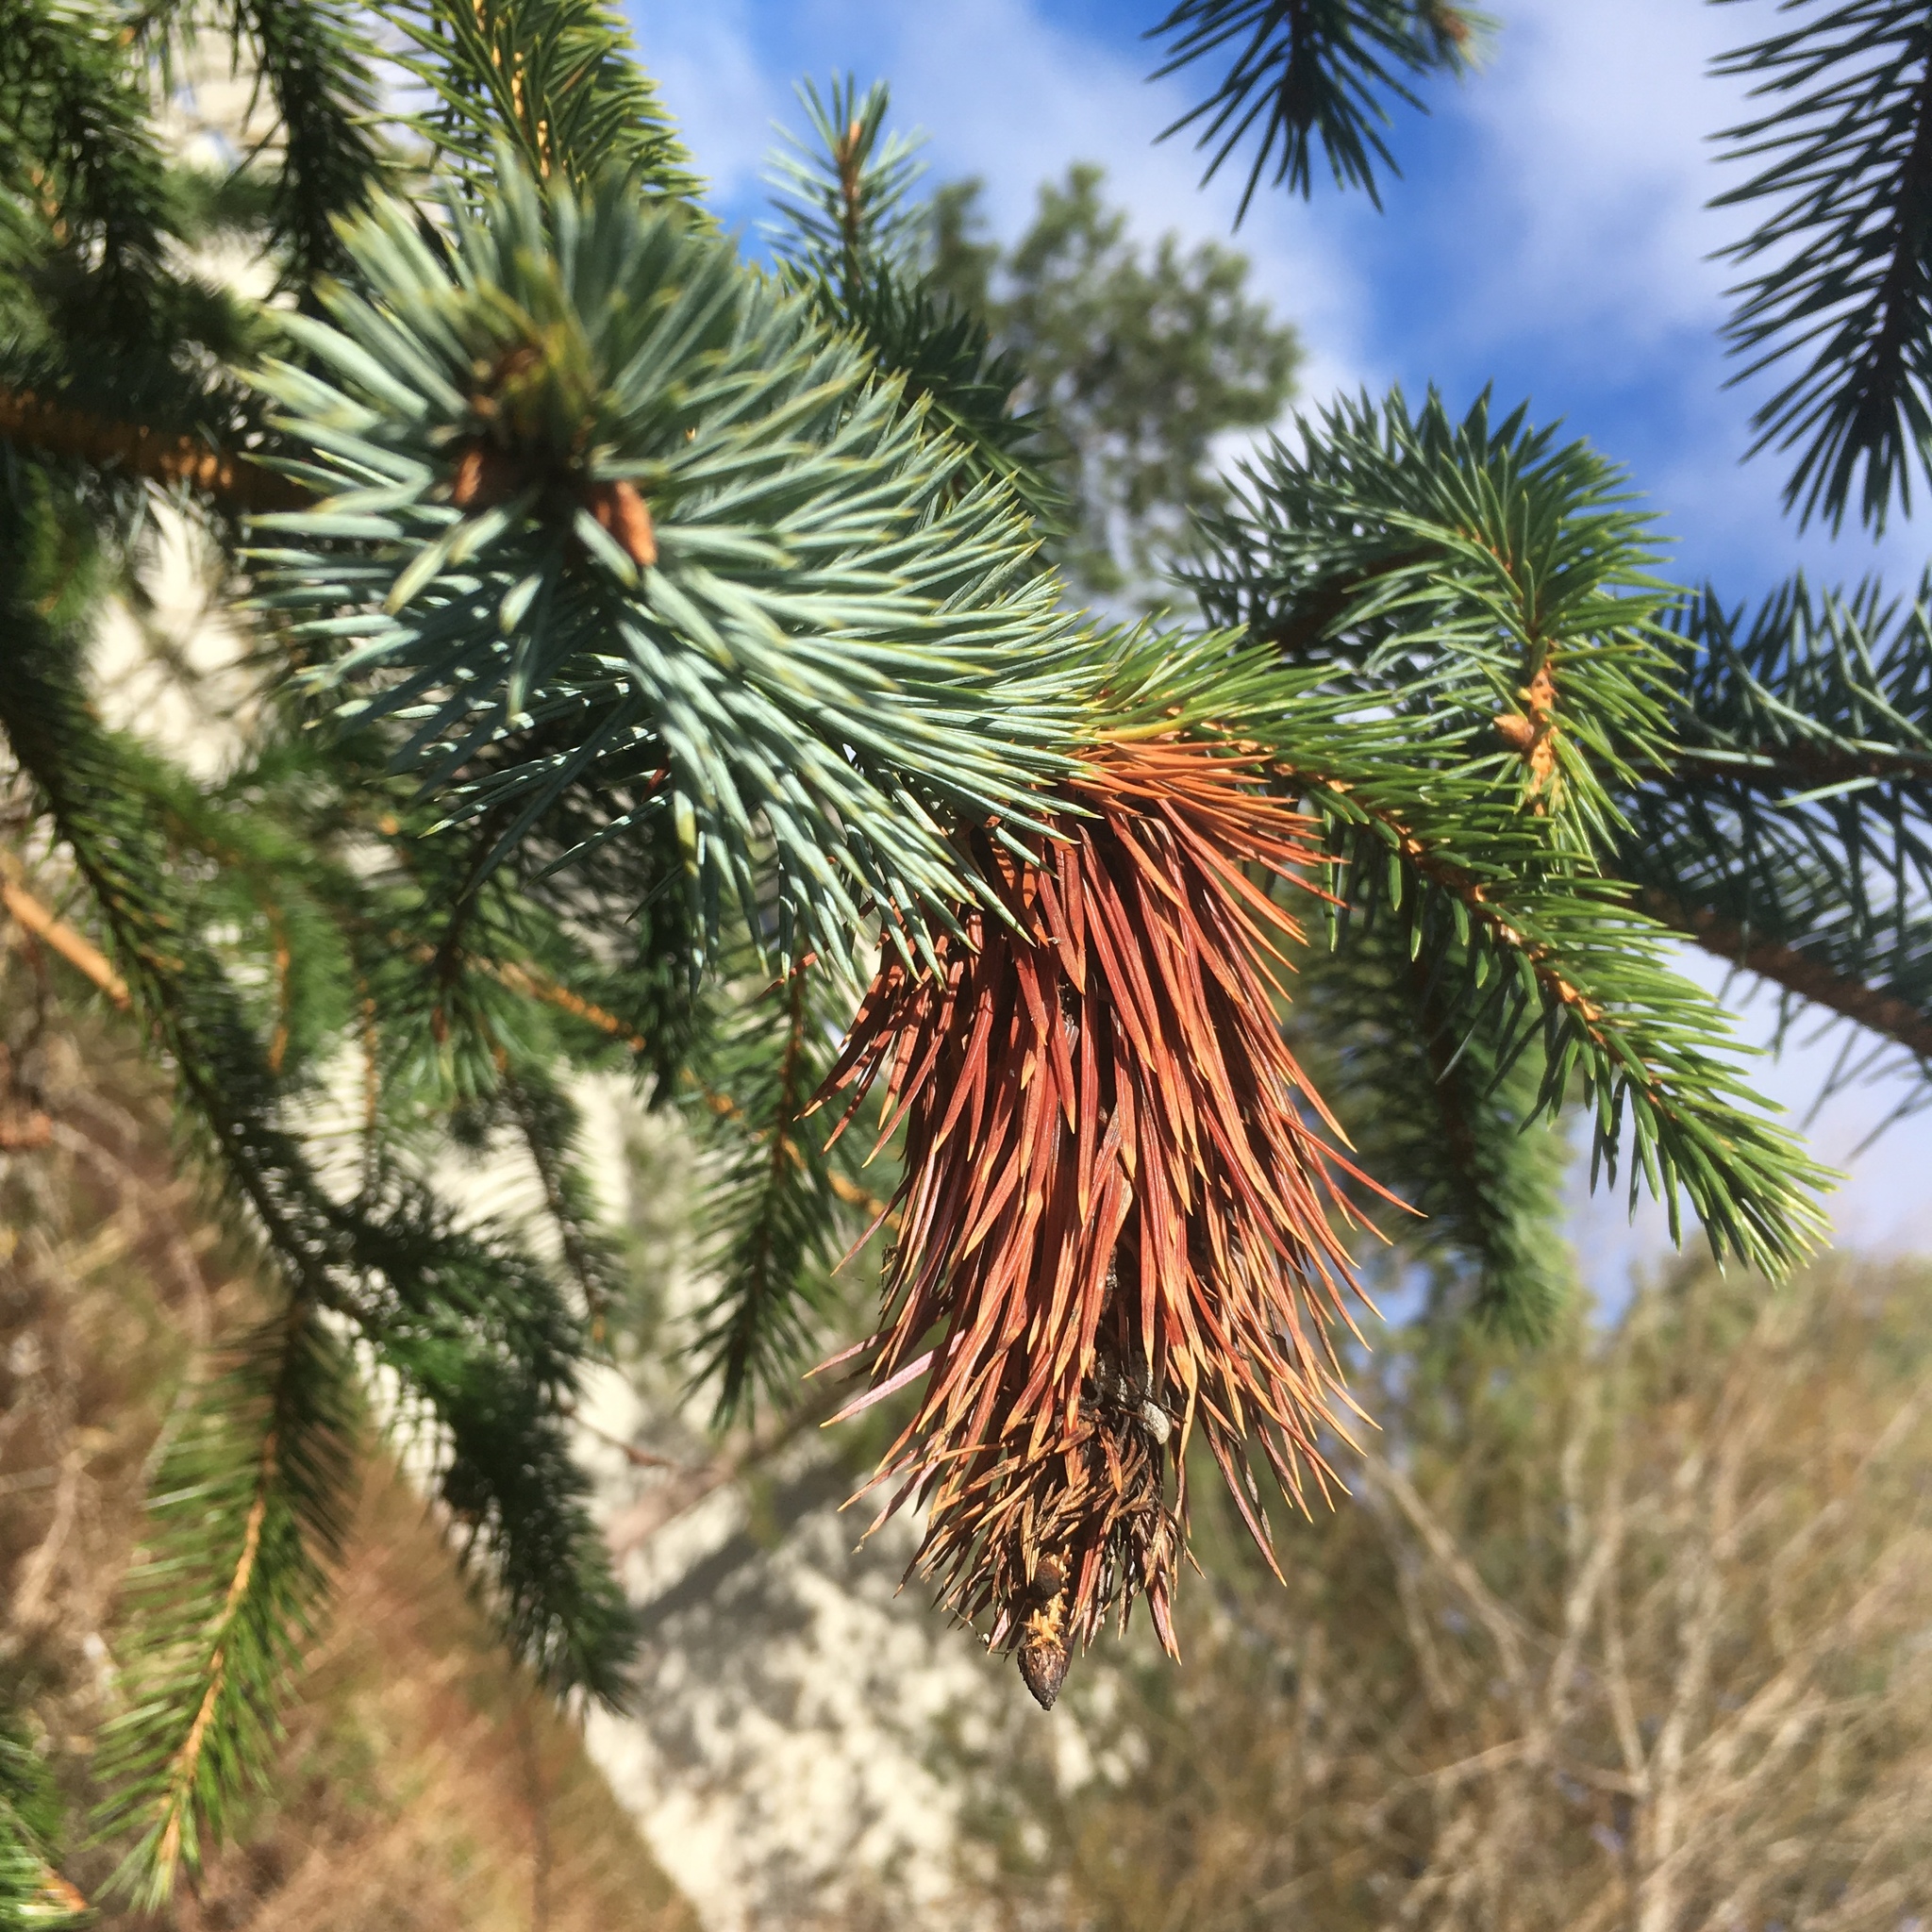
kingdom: Plantae
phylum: Tracheophyta
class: Pinopsida
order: Pinales
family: Pinaceae
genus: Picea
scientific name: Picea sitchensis
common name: Sitka spruce
